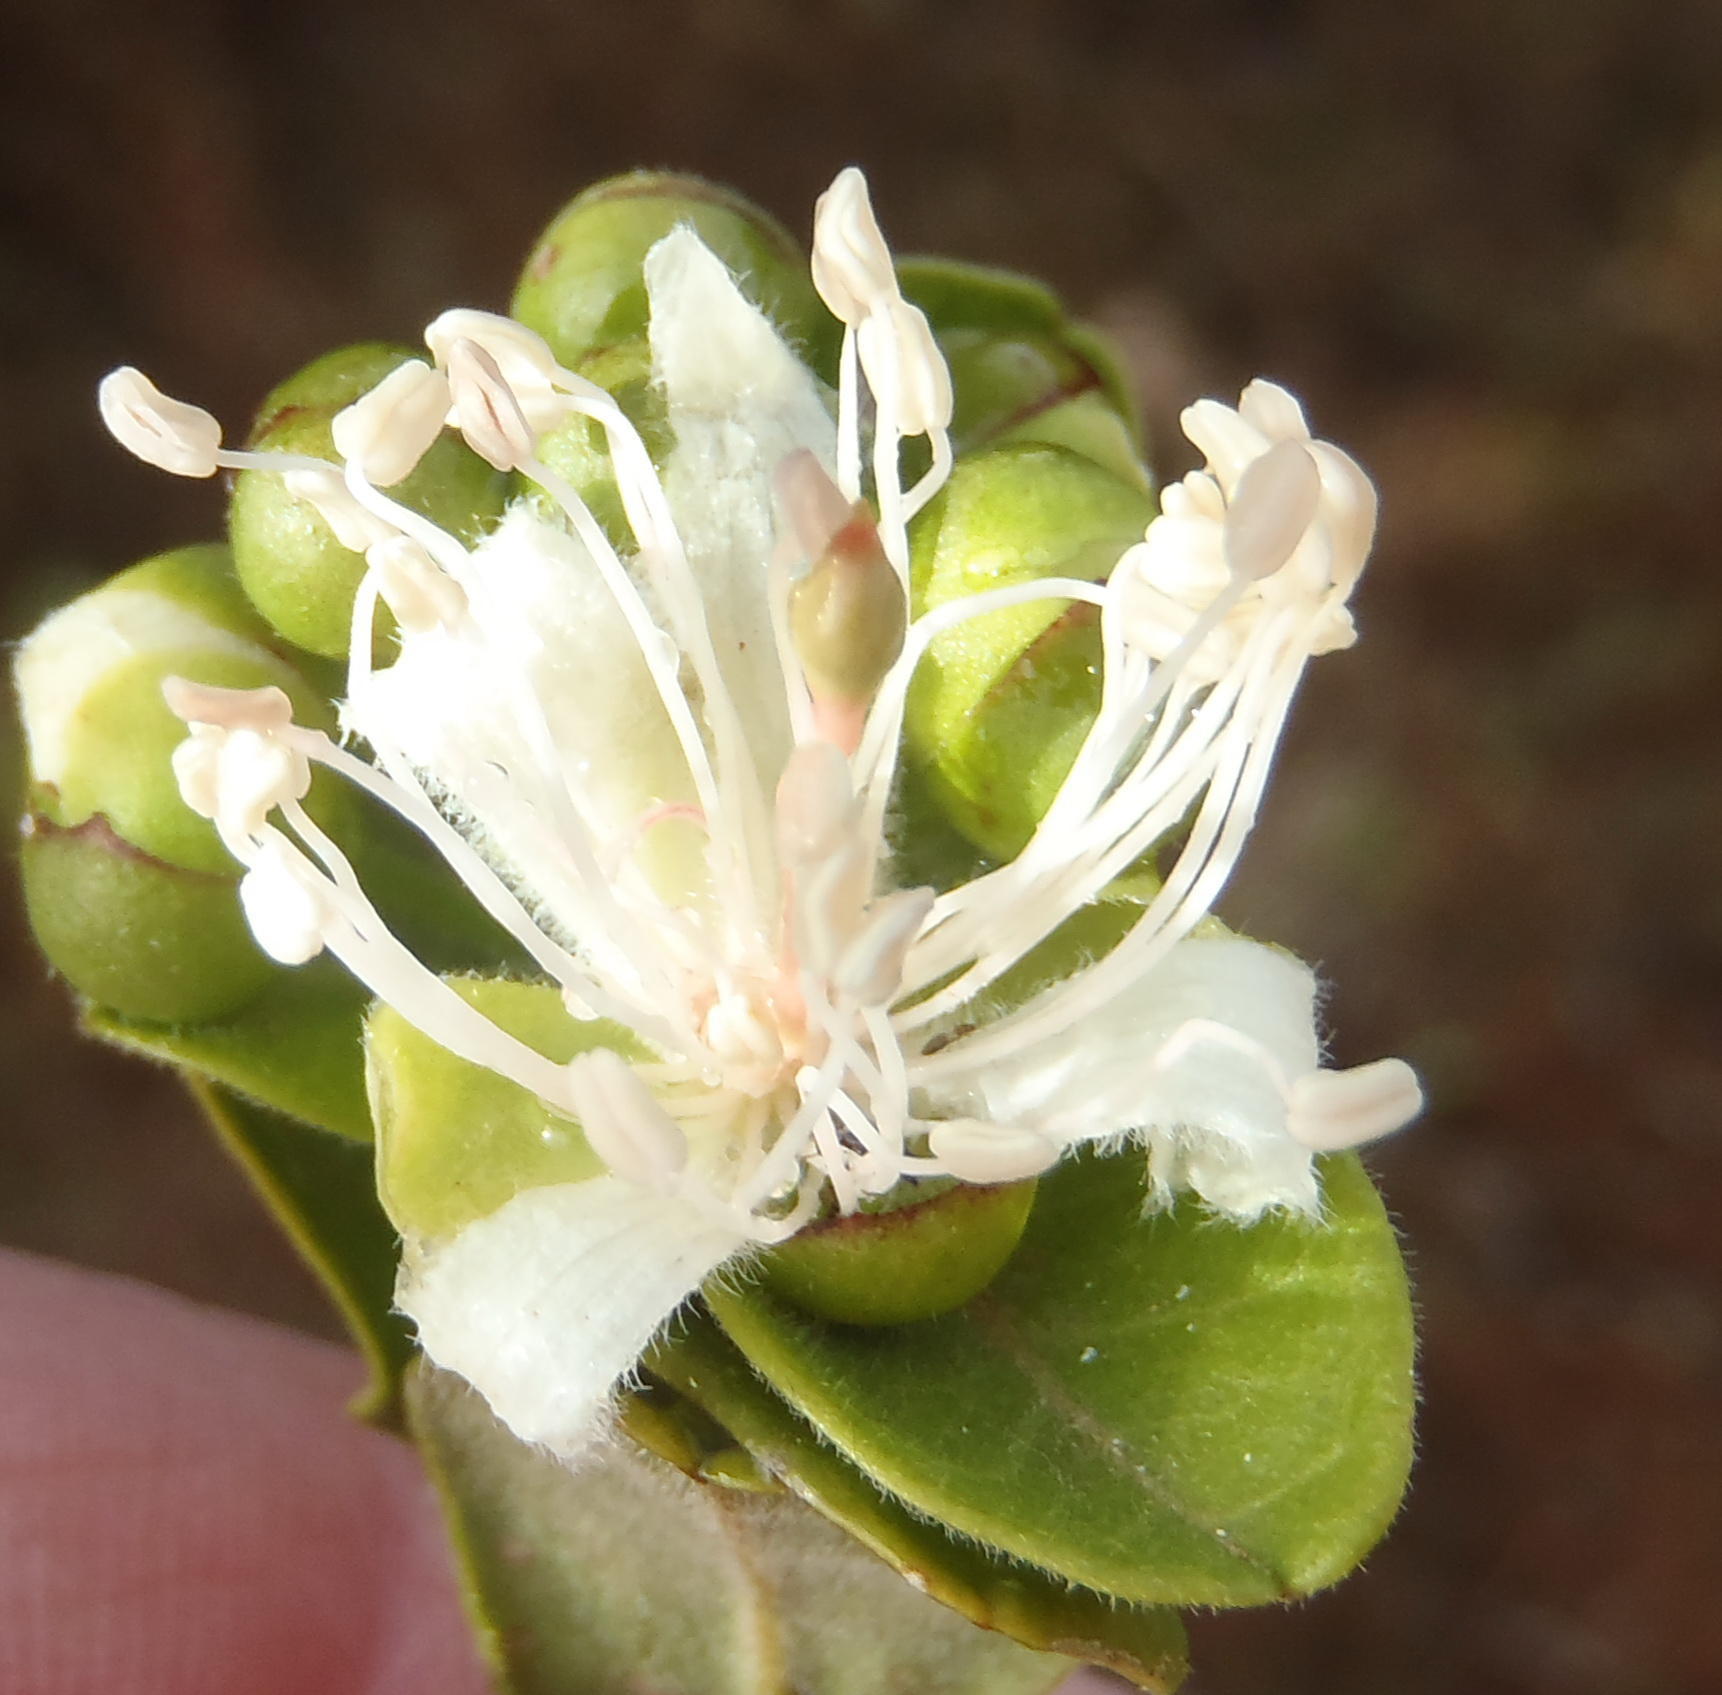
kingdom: Plantae
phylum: Tracheophyta
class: Magnoliopsida
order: Brassicales
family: Capparaceae
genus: Capparis
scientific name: Capparis sepiaria
